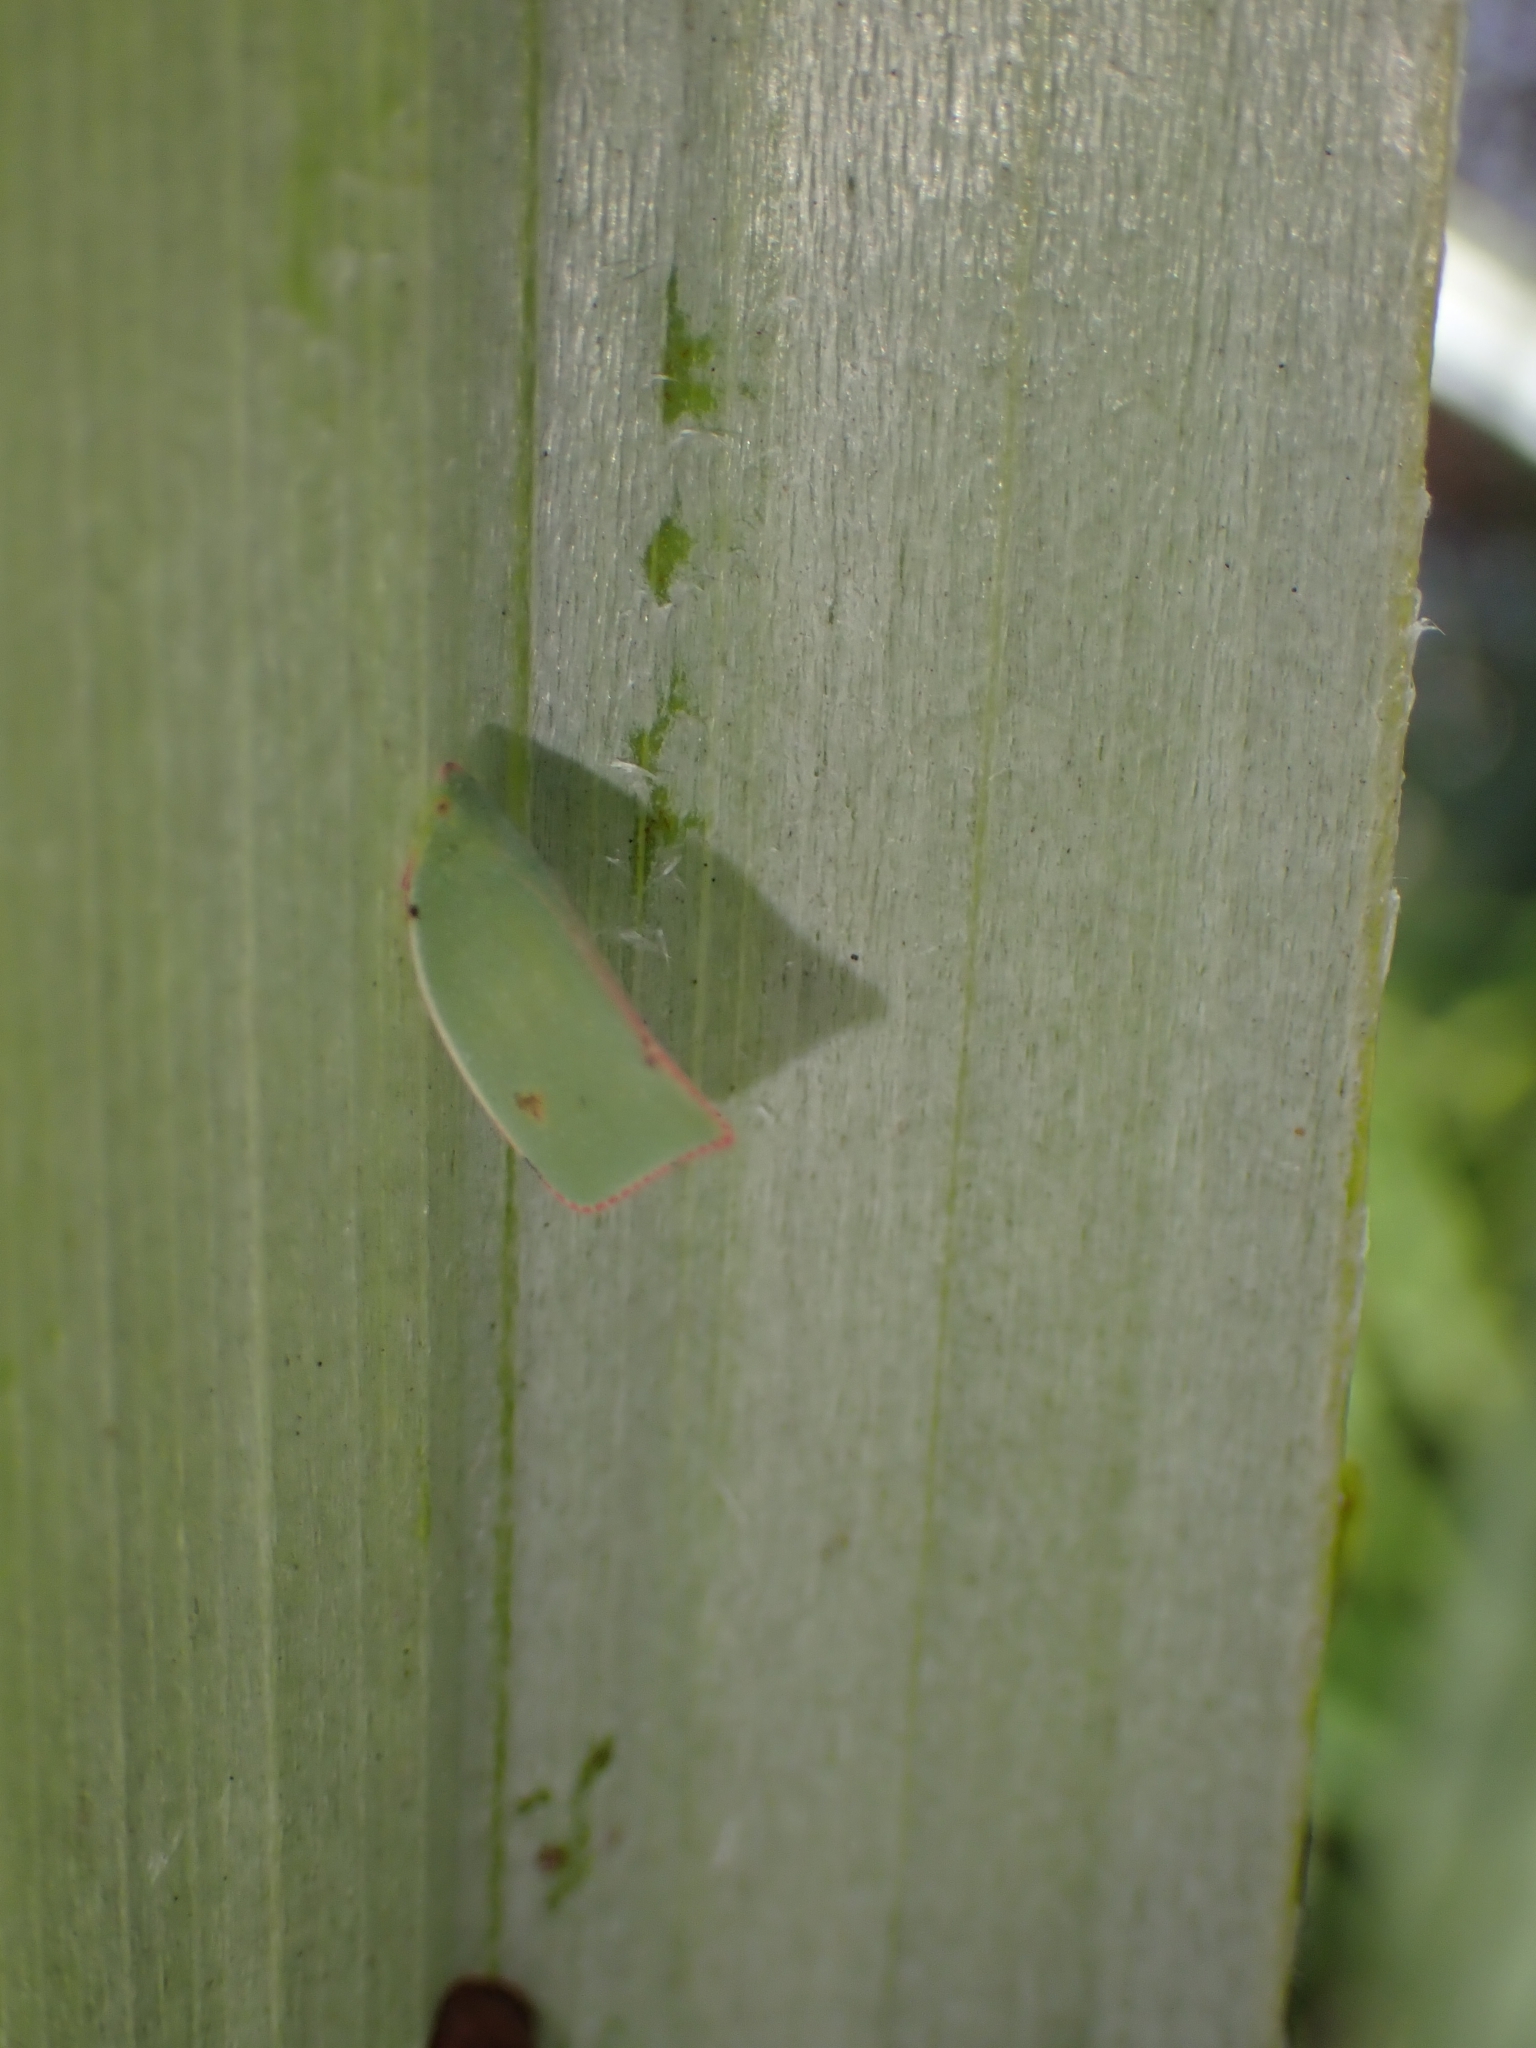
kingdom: Animalia
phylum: Arthropoda
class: Insecta
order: Hemiptera
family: Flatidae
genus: Siphanta
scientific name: Siphanta acuta
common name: Torpedo bug
